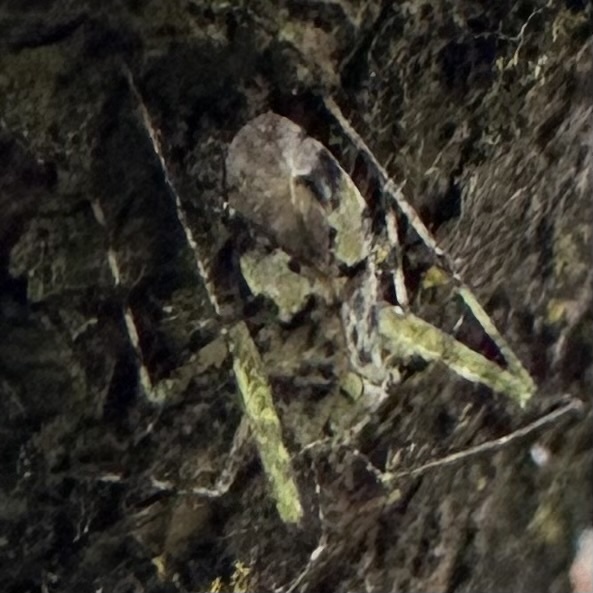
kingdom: Animalia
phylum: Arthropoda
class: Insecta
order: Hemiptera
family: Miridae
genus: Phytocoris
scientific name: Phytocoris tiliae
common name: Plant bug
